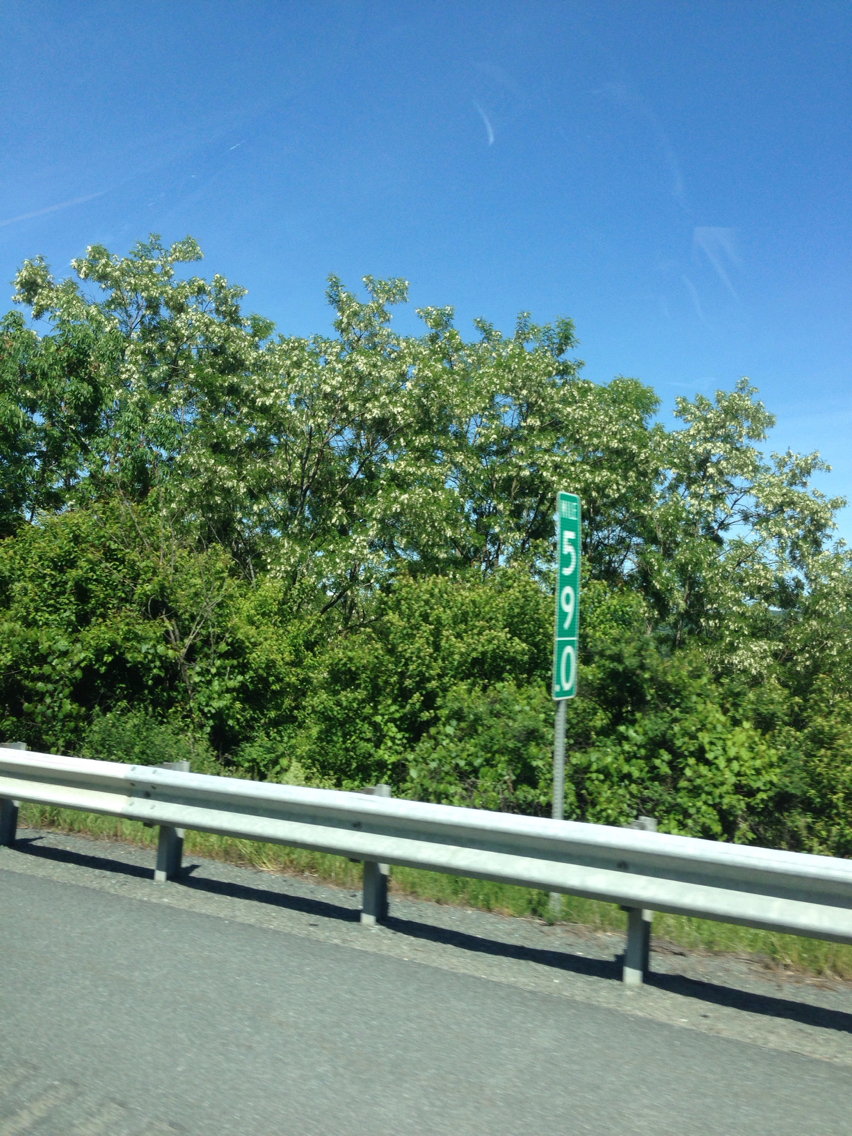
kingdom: Plantae
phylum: Tracheophyta
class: Magnoliopsida
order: Fabales
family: Fabaceae
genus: Robinia
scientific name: Robinia pseudoacacia
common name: Black locust
